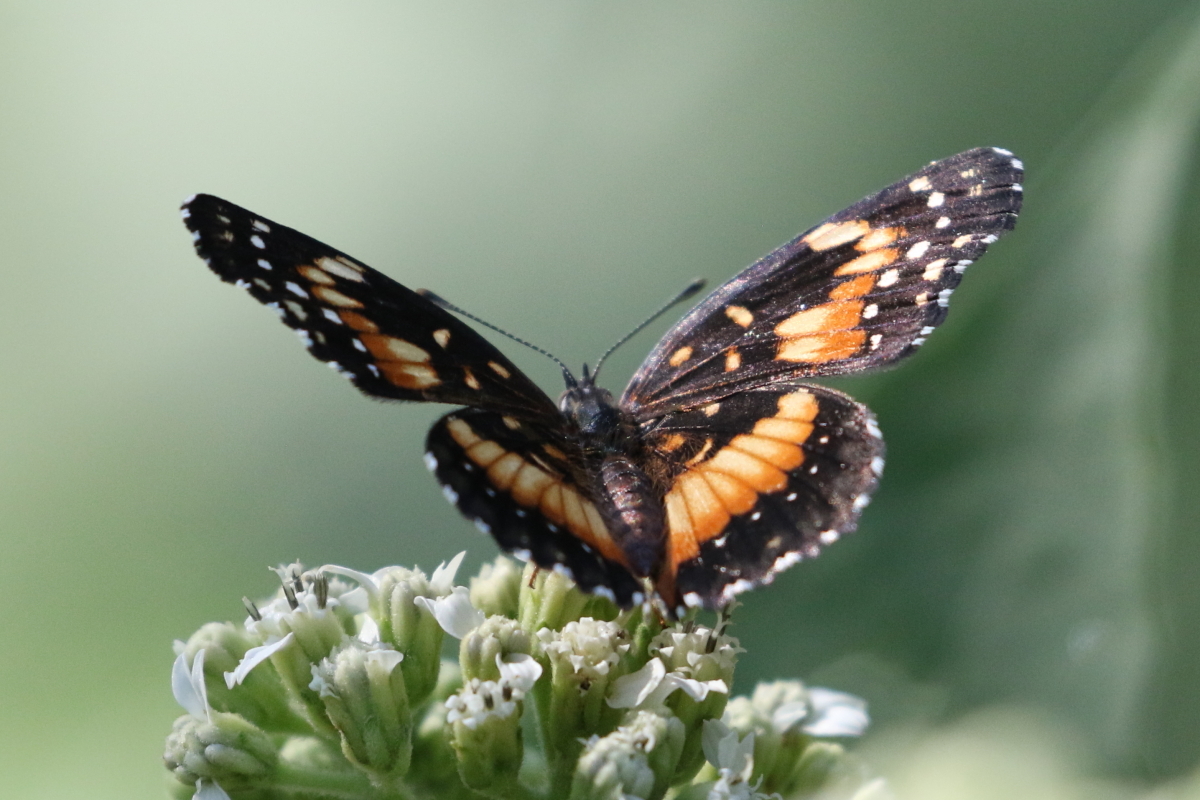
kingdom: Animalia
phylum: Arthropoda
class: Insecta
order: Lepidoptera
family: Nymphalidae
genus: Chlosyne
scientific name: Chlosyne lacinia
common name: Bordered patch
